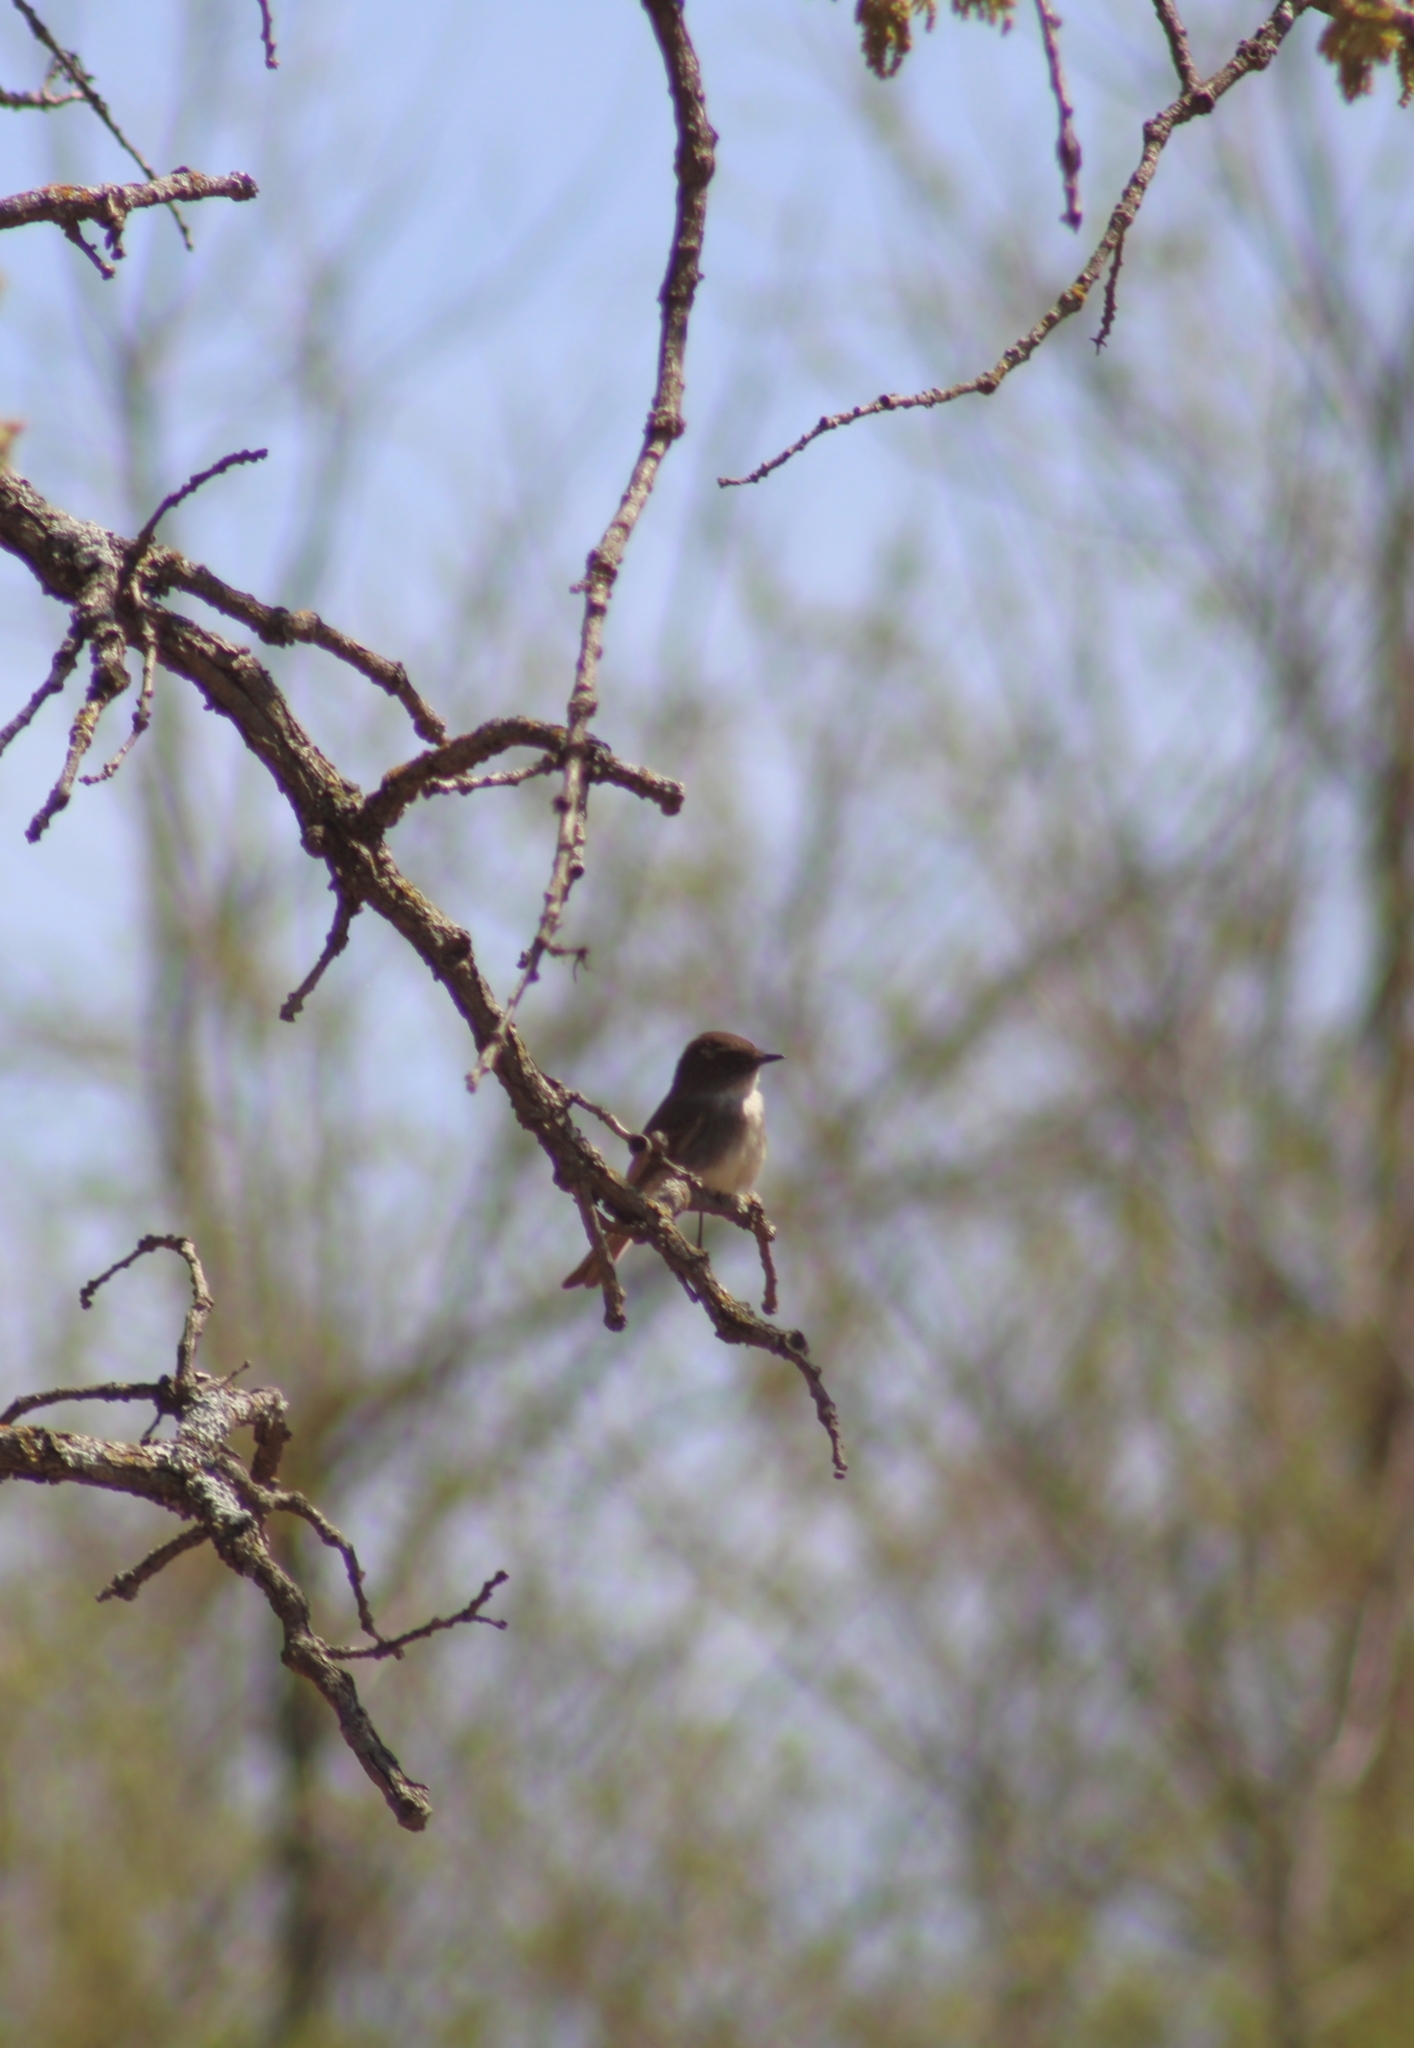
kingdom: Animalia
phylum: Chordata
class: Aves
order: Passeriformes
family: Tyrannidae
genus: Sayornis
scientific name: Sayornis phoebe
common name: Eastern phoebe
